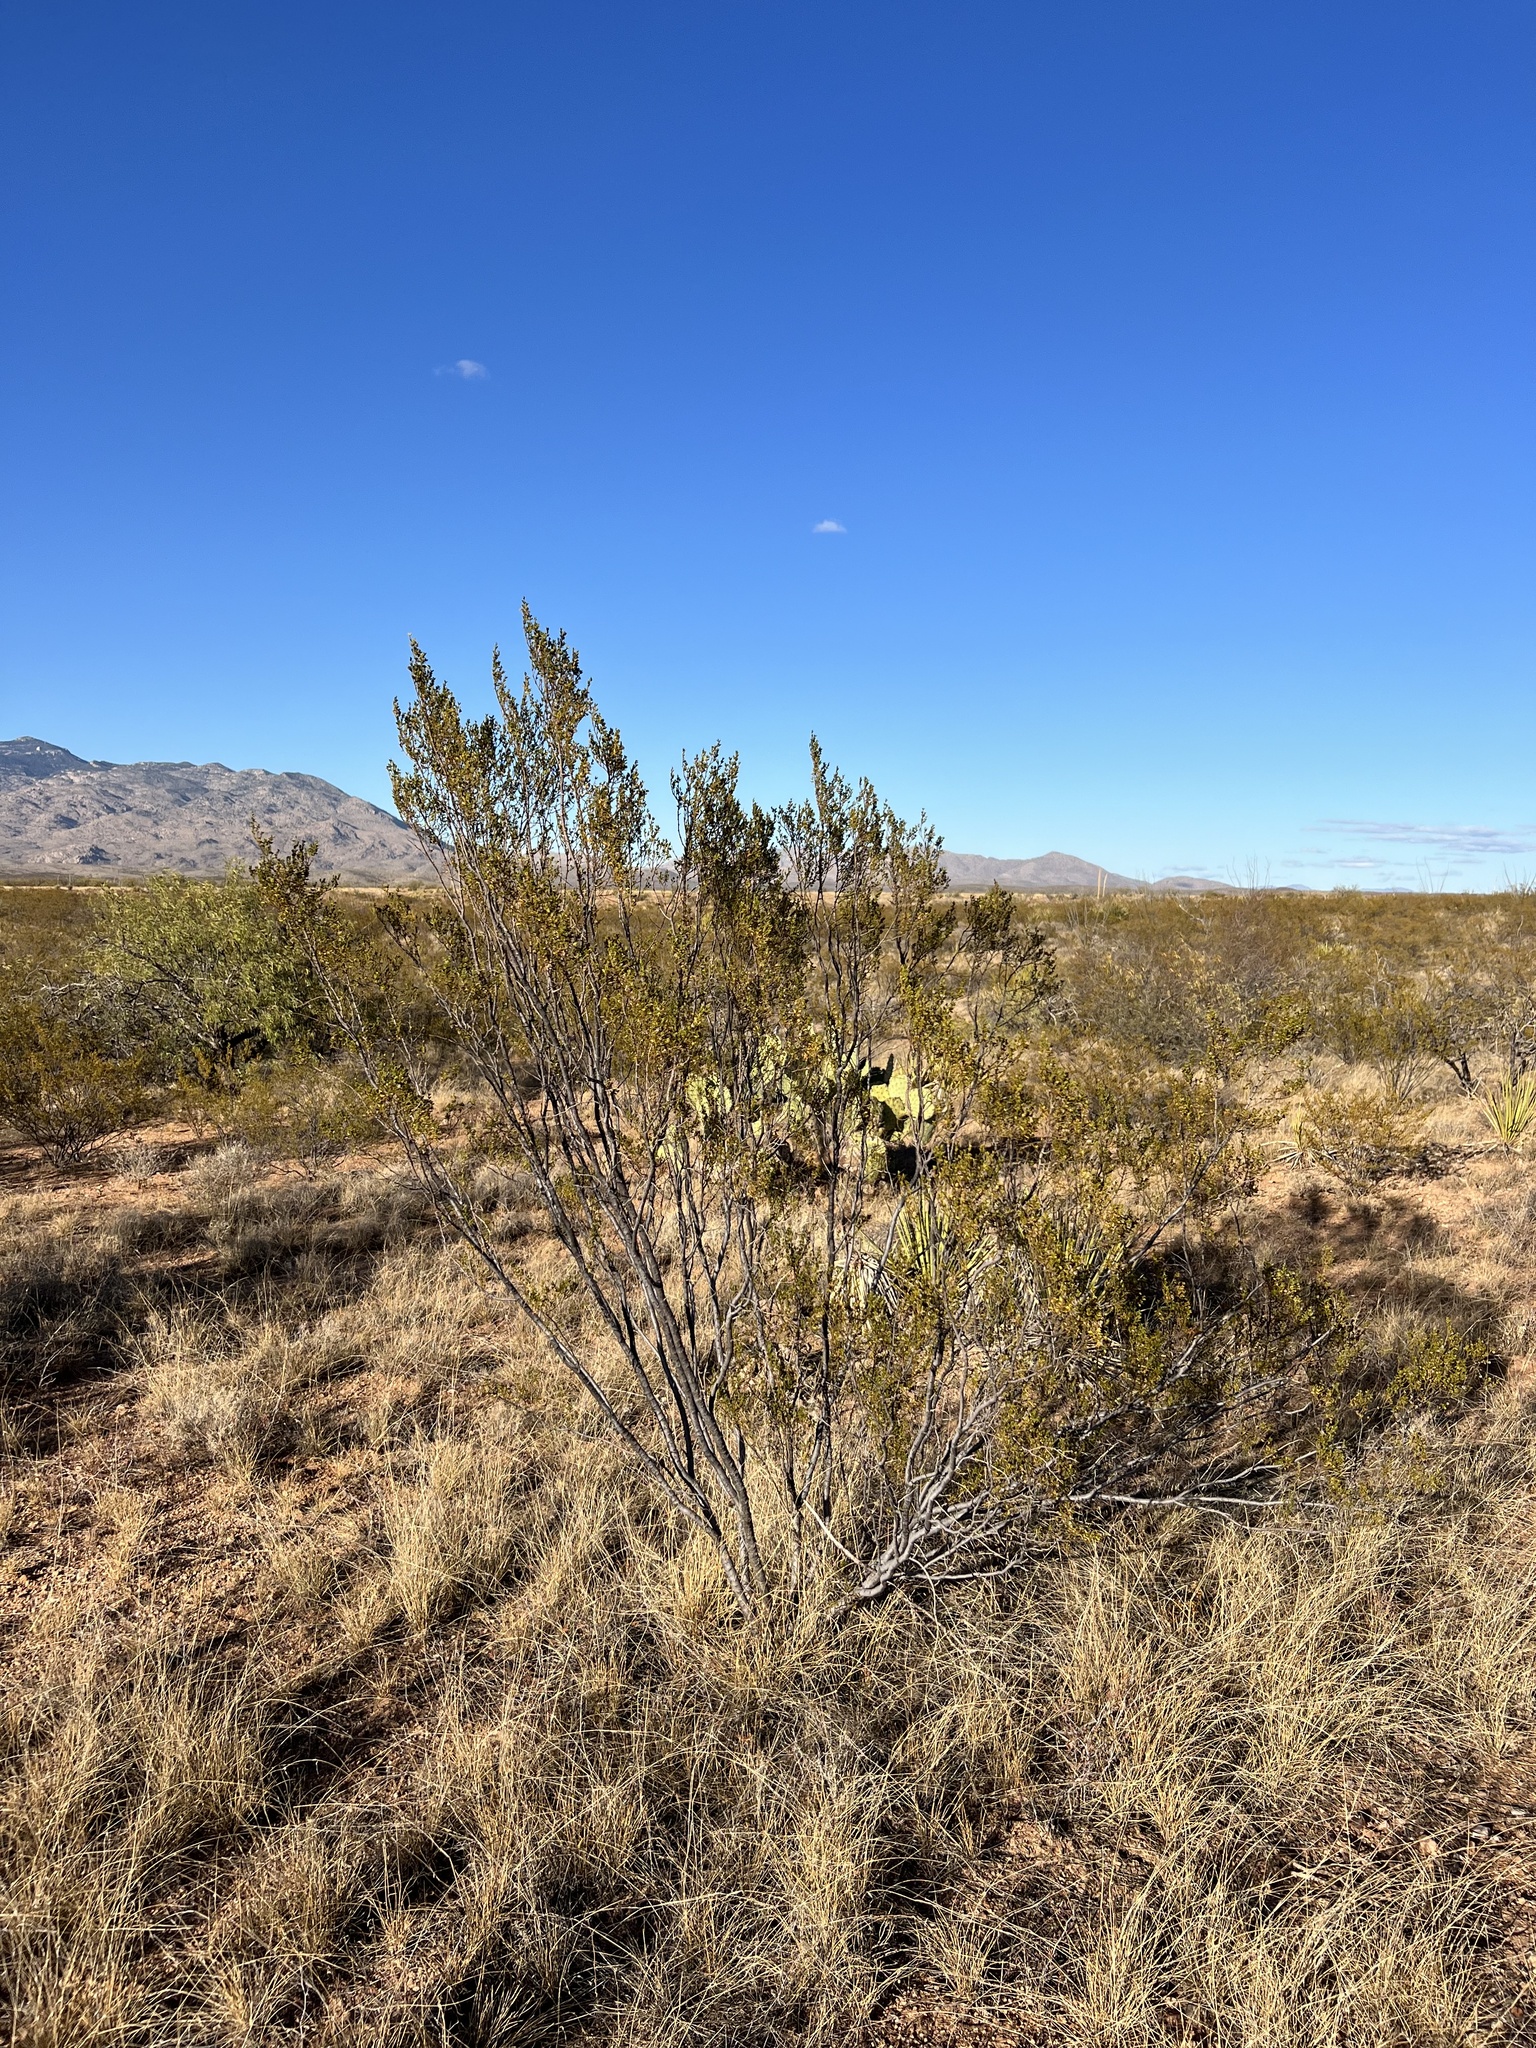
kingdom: Plantae
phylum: Tracheophyta
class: Magnoliopsida
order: Zygophyllales
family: Zygophyllaceae
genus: Larrea
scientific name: Larrea tridentata
